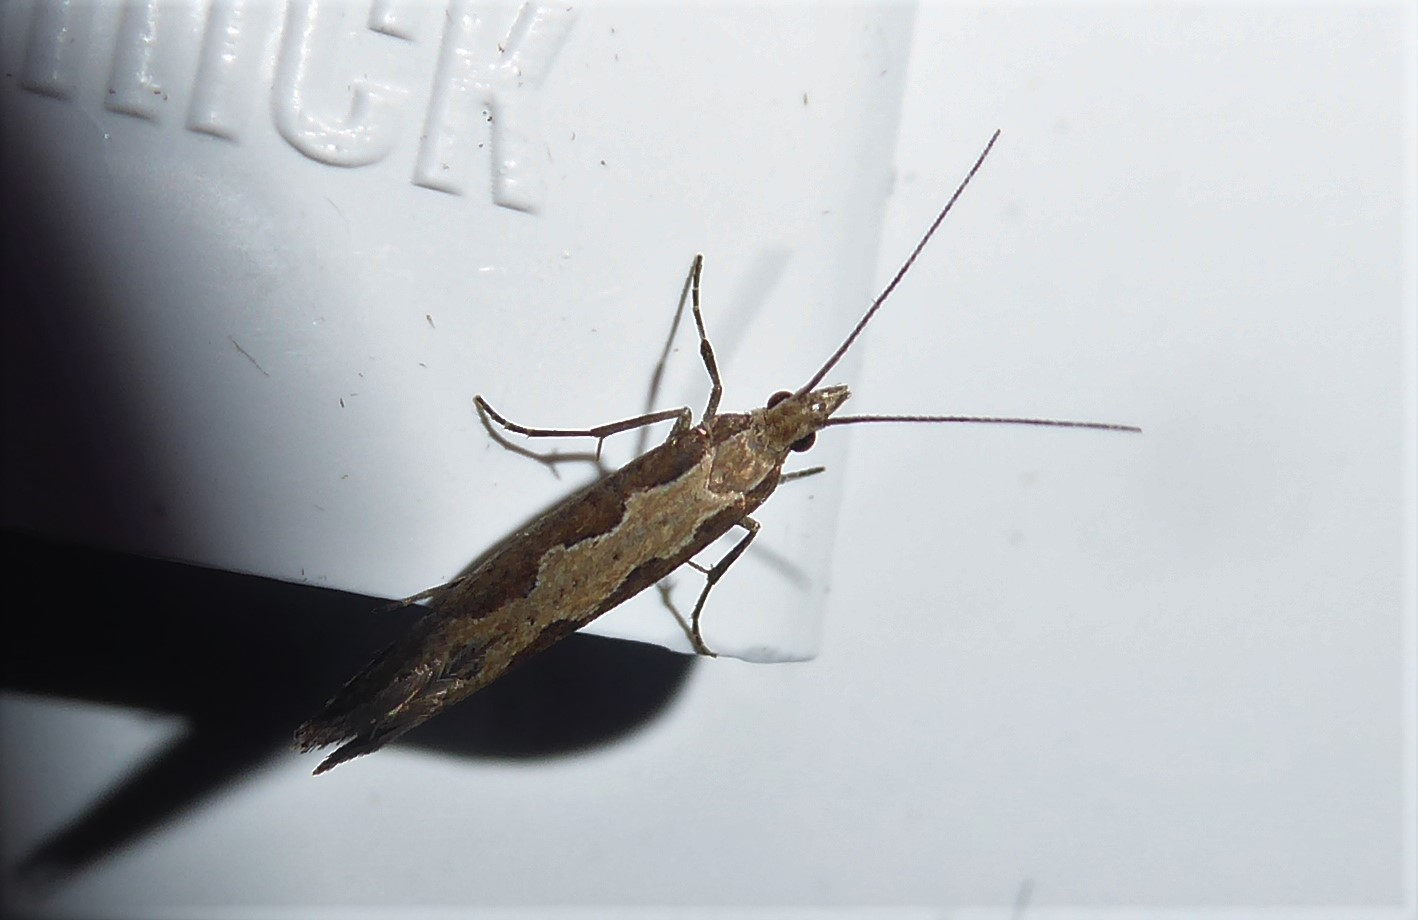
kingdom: Animalia
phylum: Arthropoda
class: Insecta
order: Lepidoptera
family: Plutellidae
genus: Plutella
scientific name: Plutella xylostella
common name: Diamond-back moth
